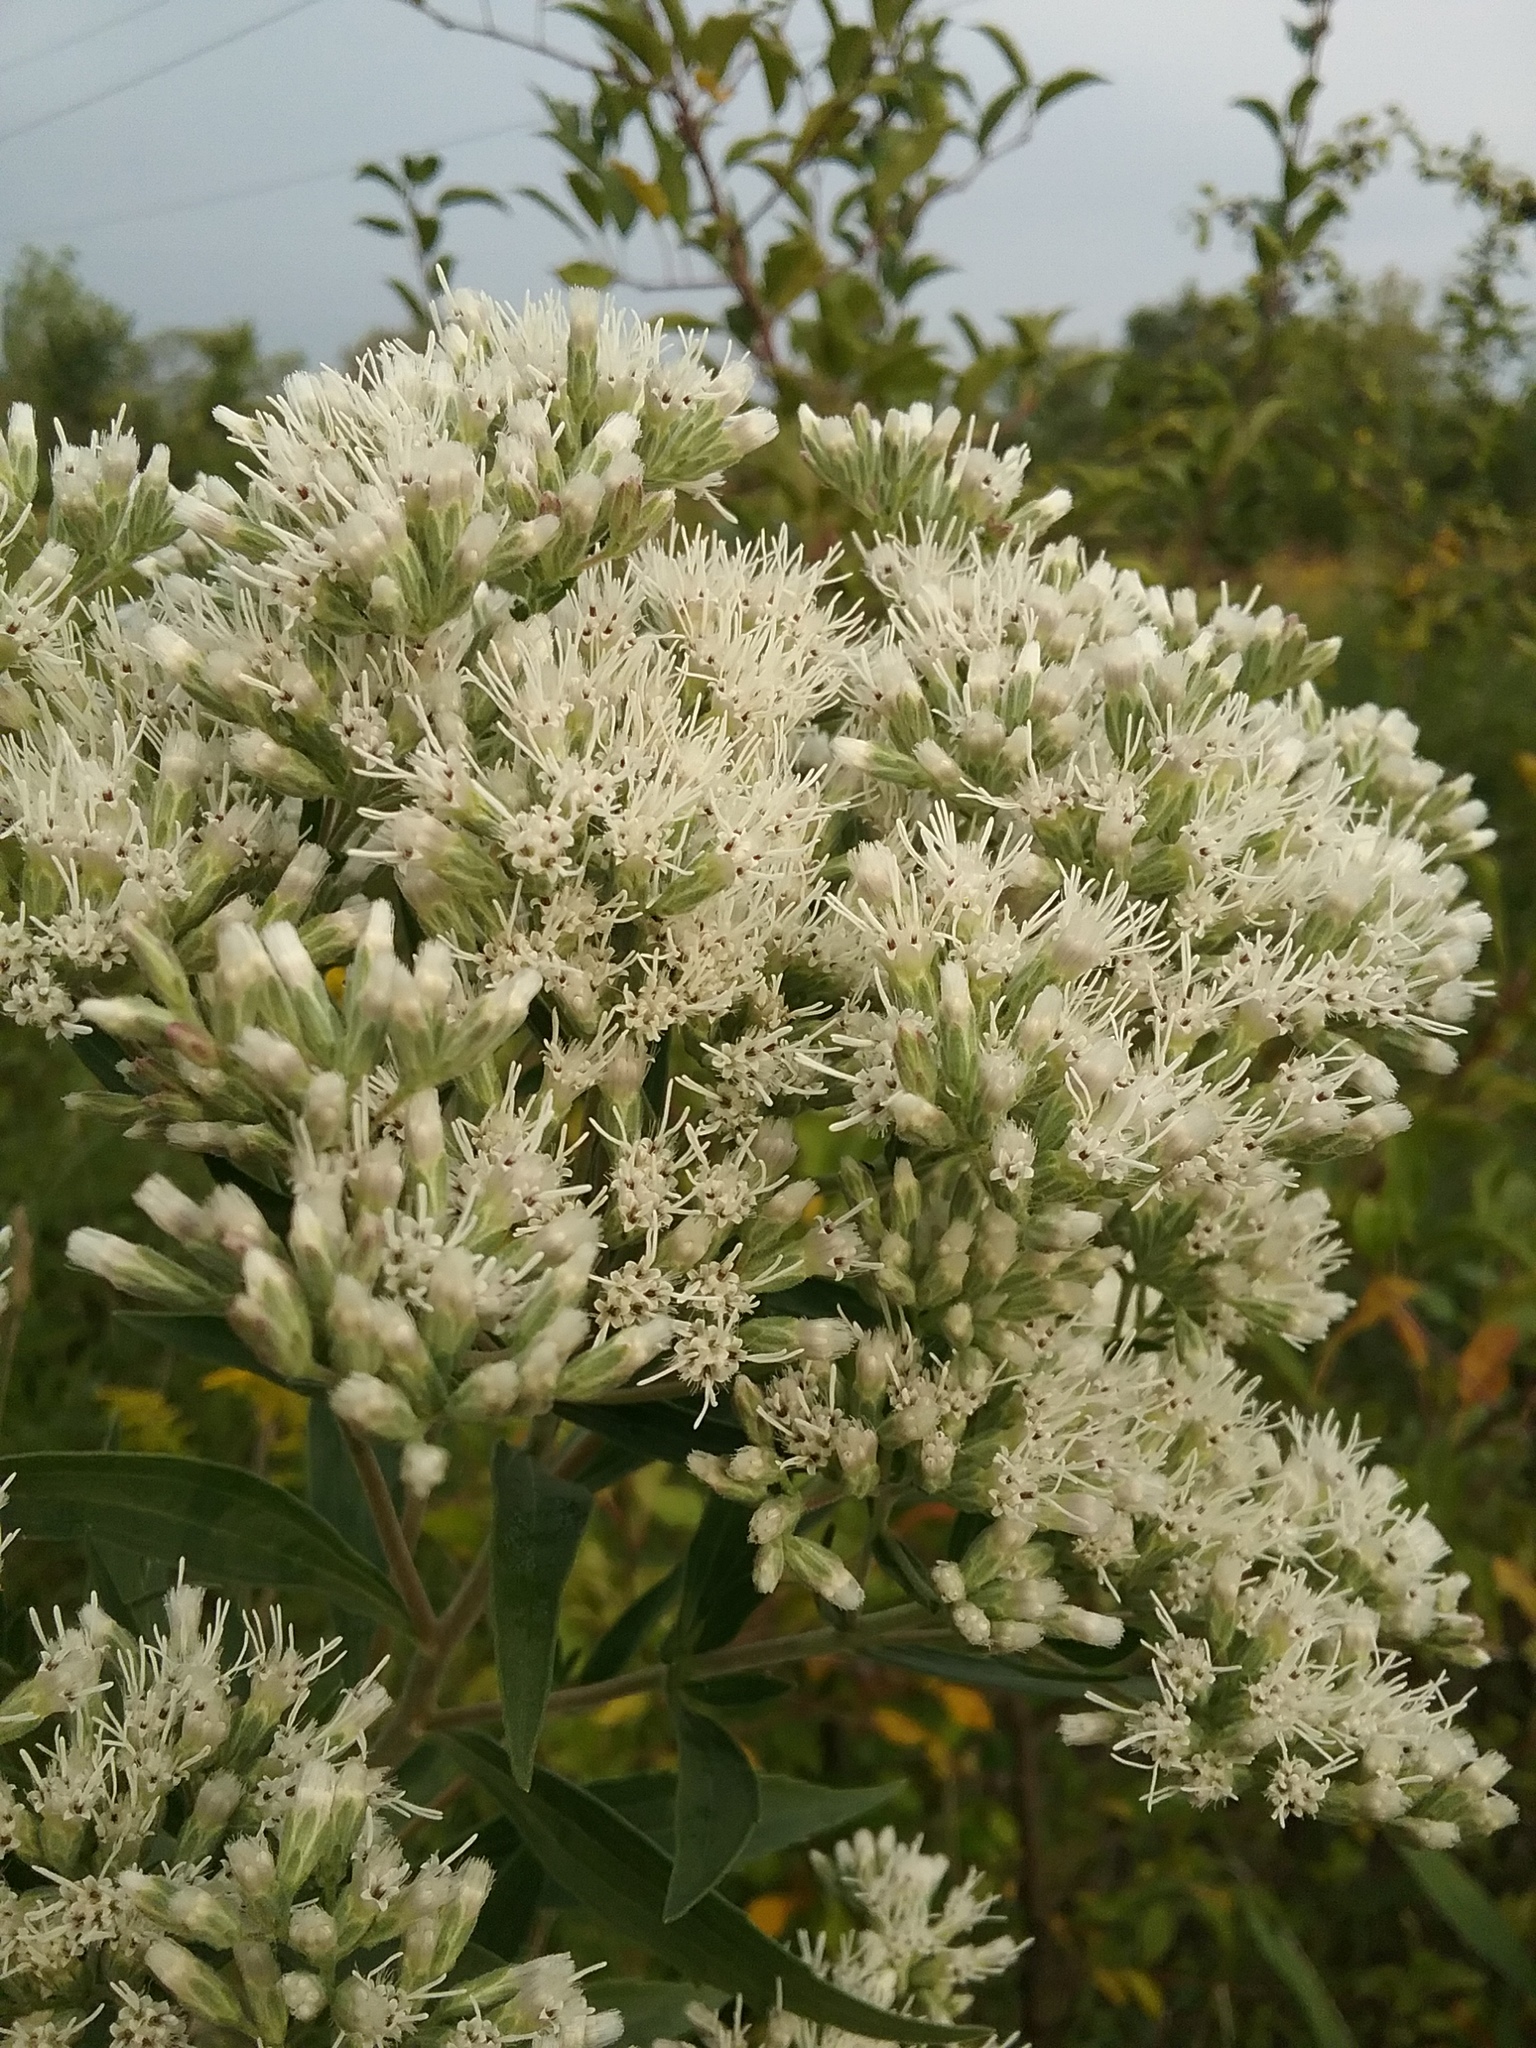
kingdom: Plantae
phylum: Tracheophyta
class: Magnoliopsida
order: Asterales
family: Asteraceae
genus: Eupatorium
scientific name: Eupatorium altissimum
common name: Tall thoroughwort
